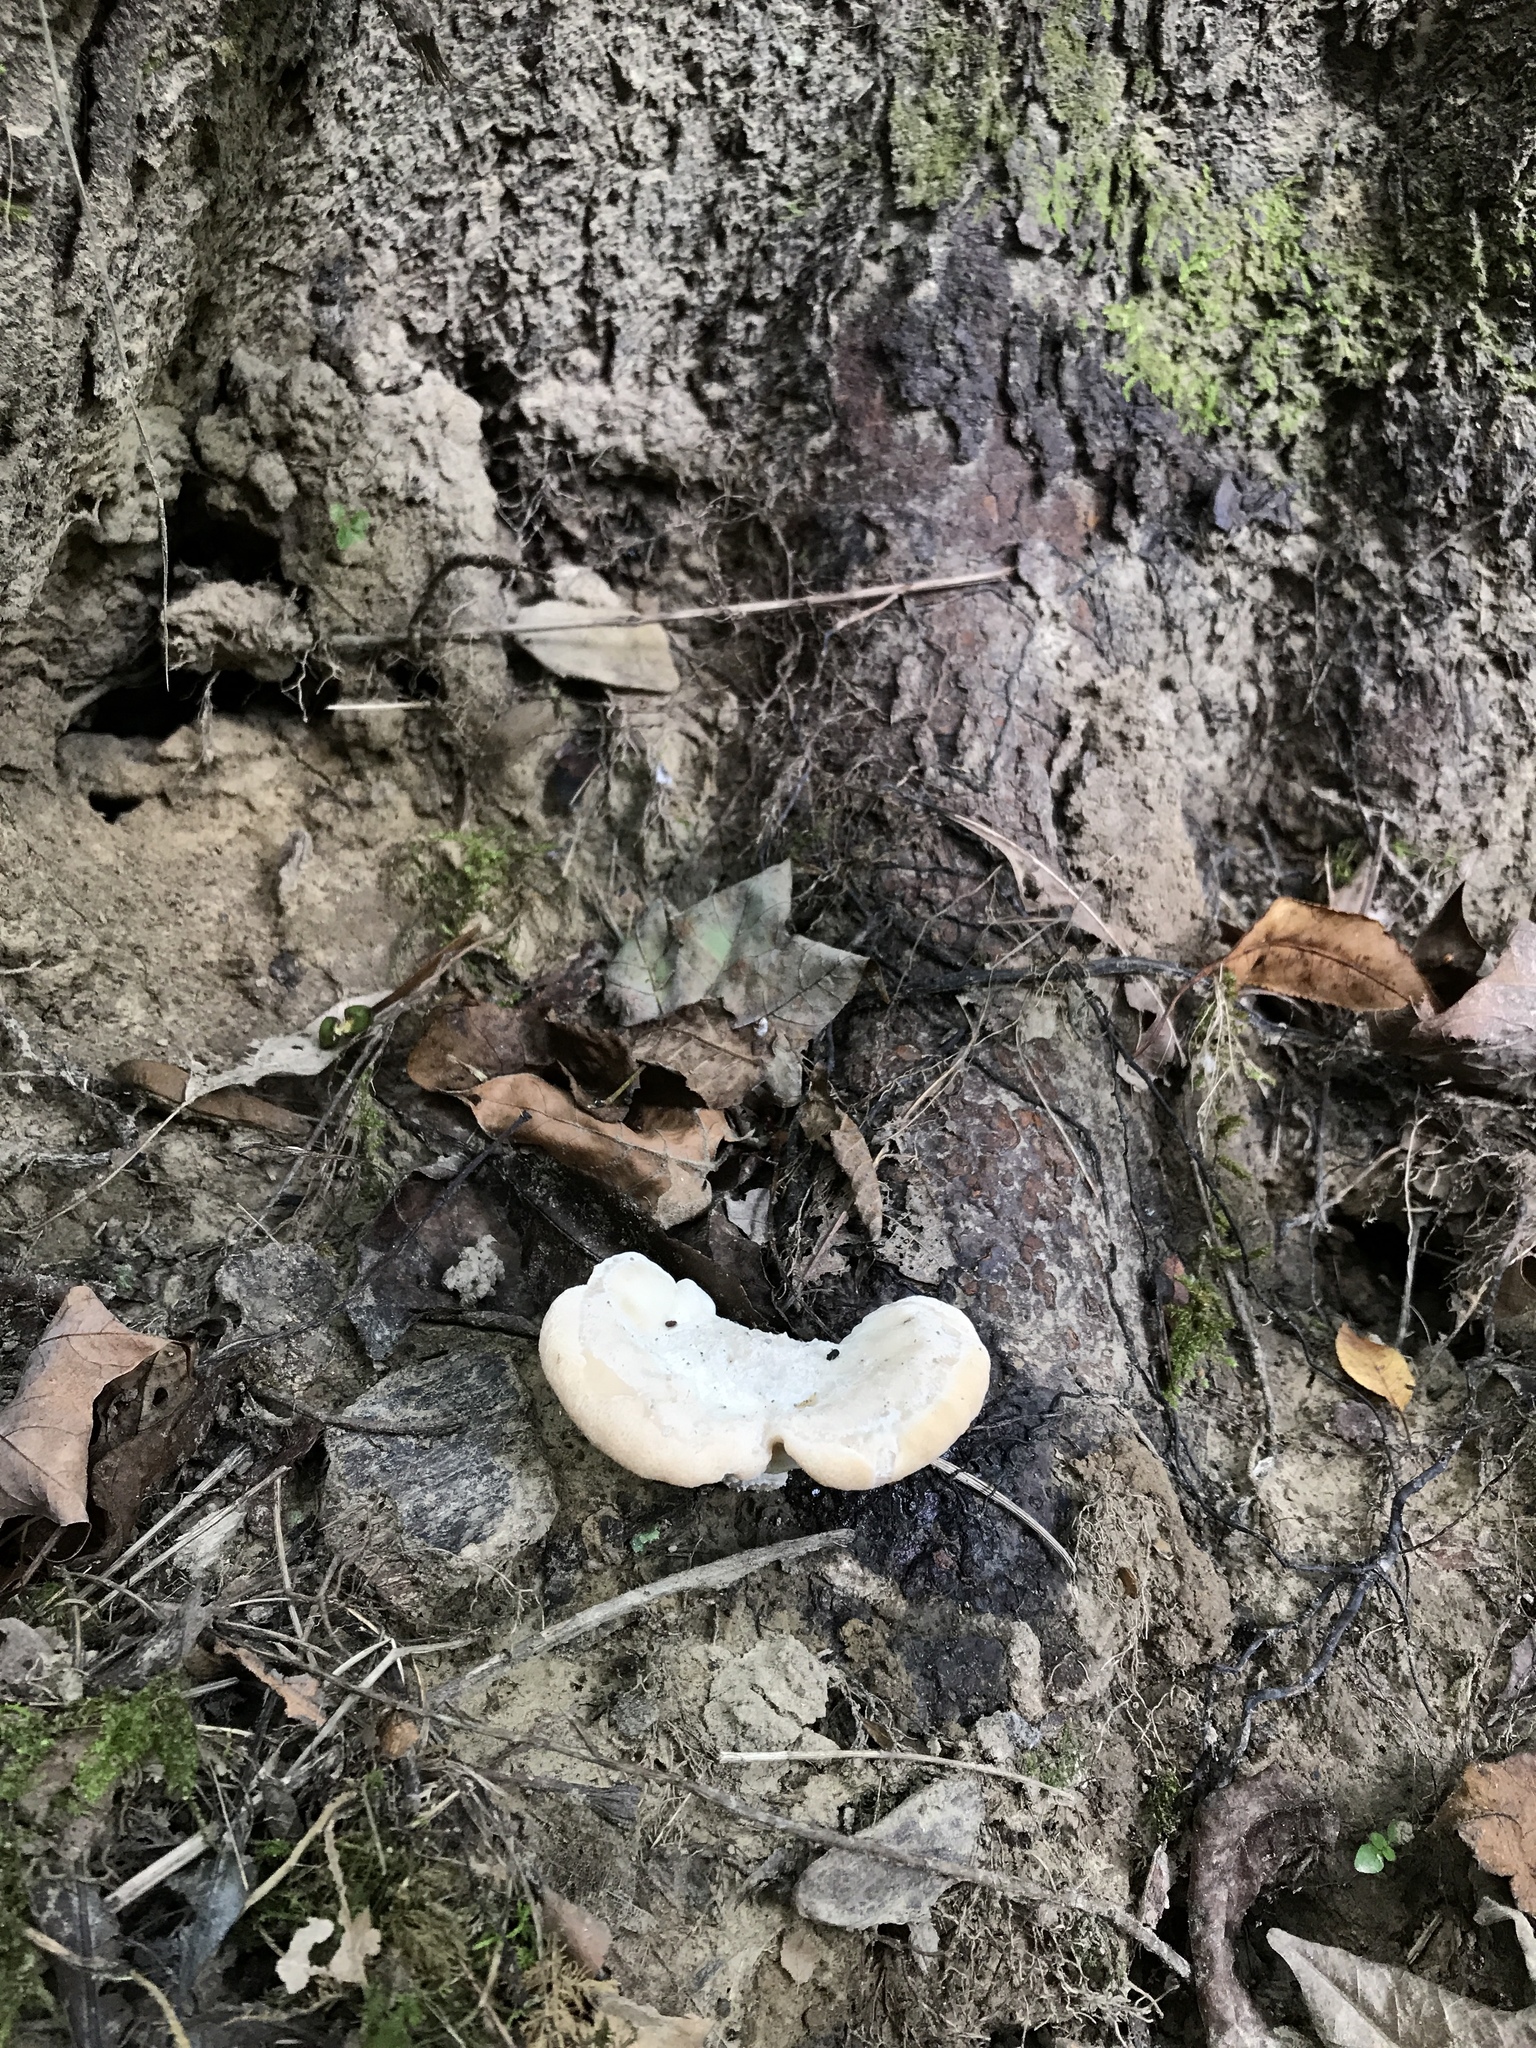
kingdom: Fungi
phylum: Basidiomycota
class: Agaricomycetes
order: Russulales
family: Bondarzewiaceae
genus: Bondarzewia
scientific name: Bondarzewia berkeleyi
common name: Berkeley's polypore
